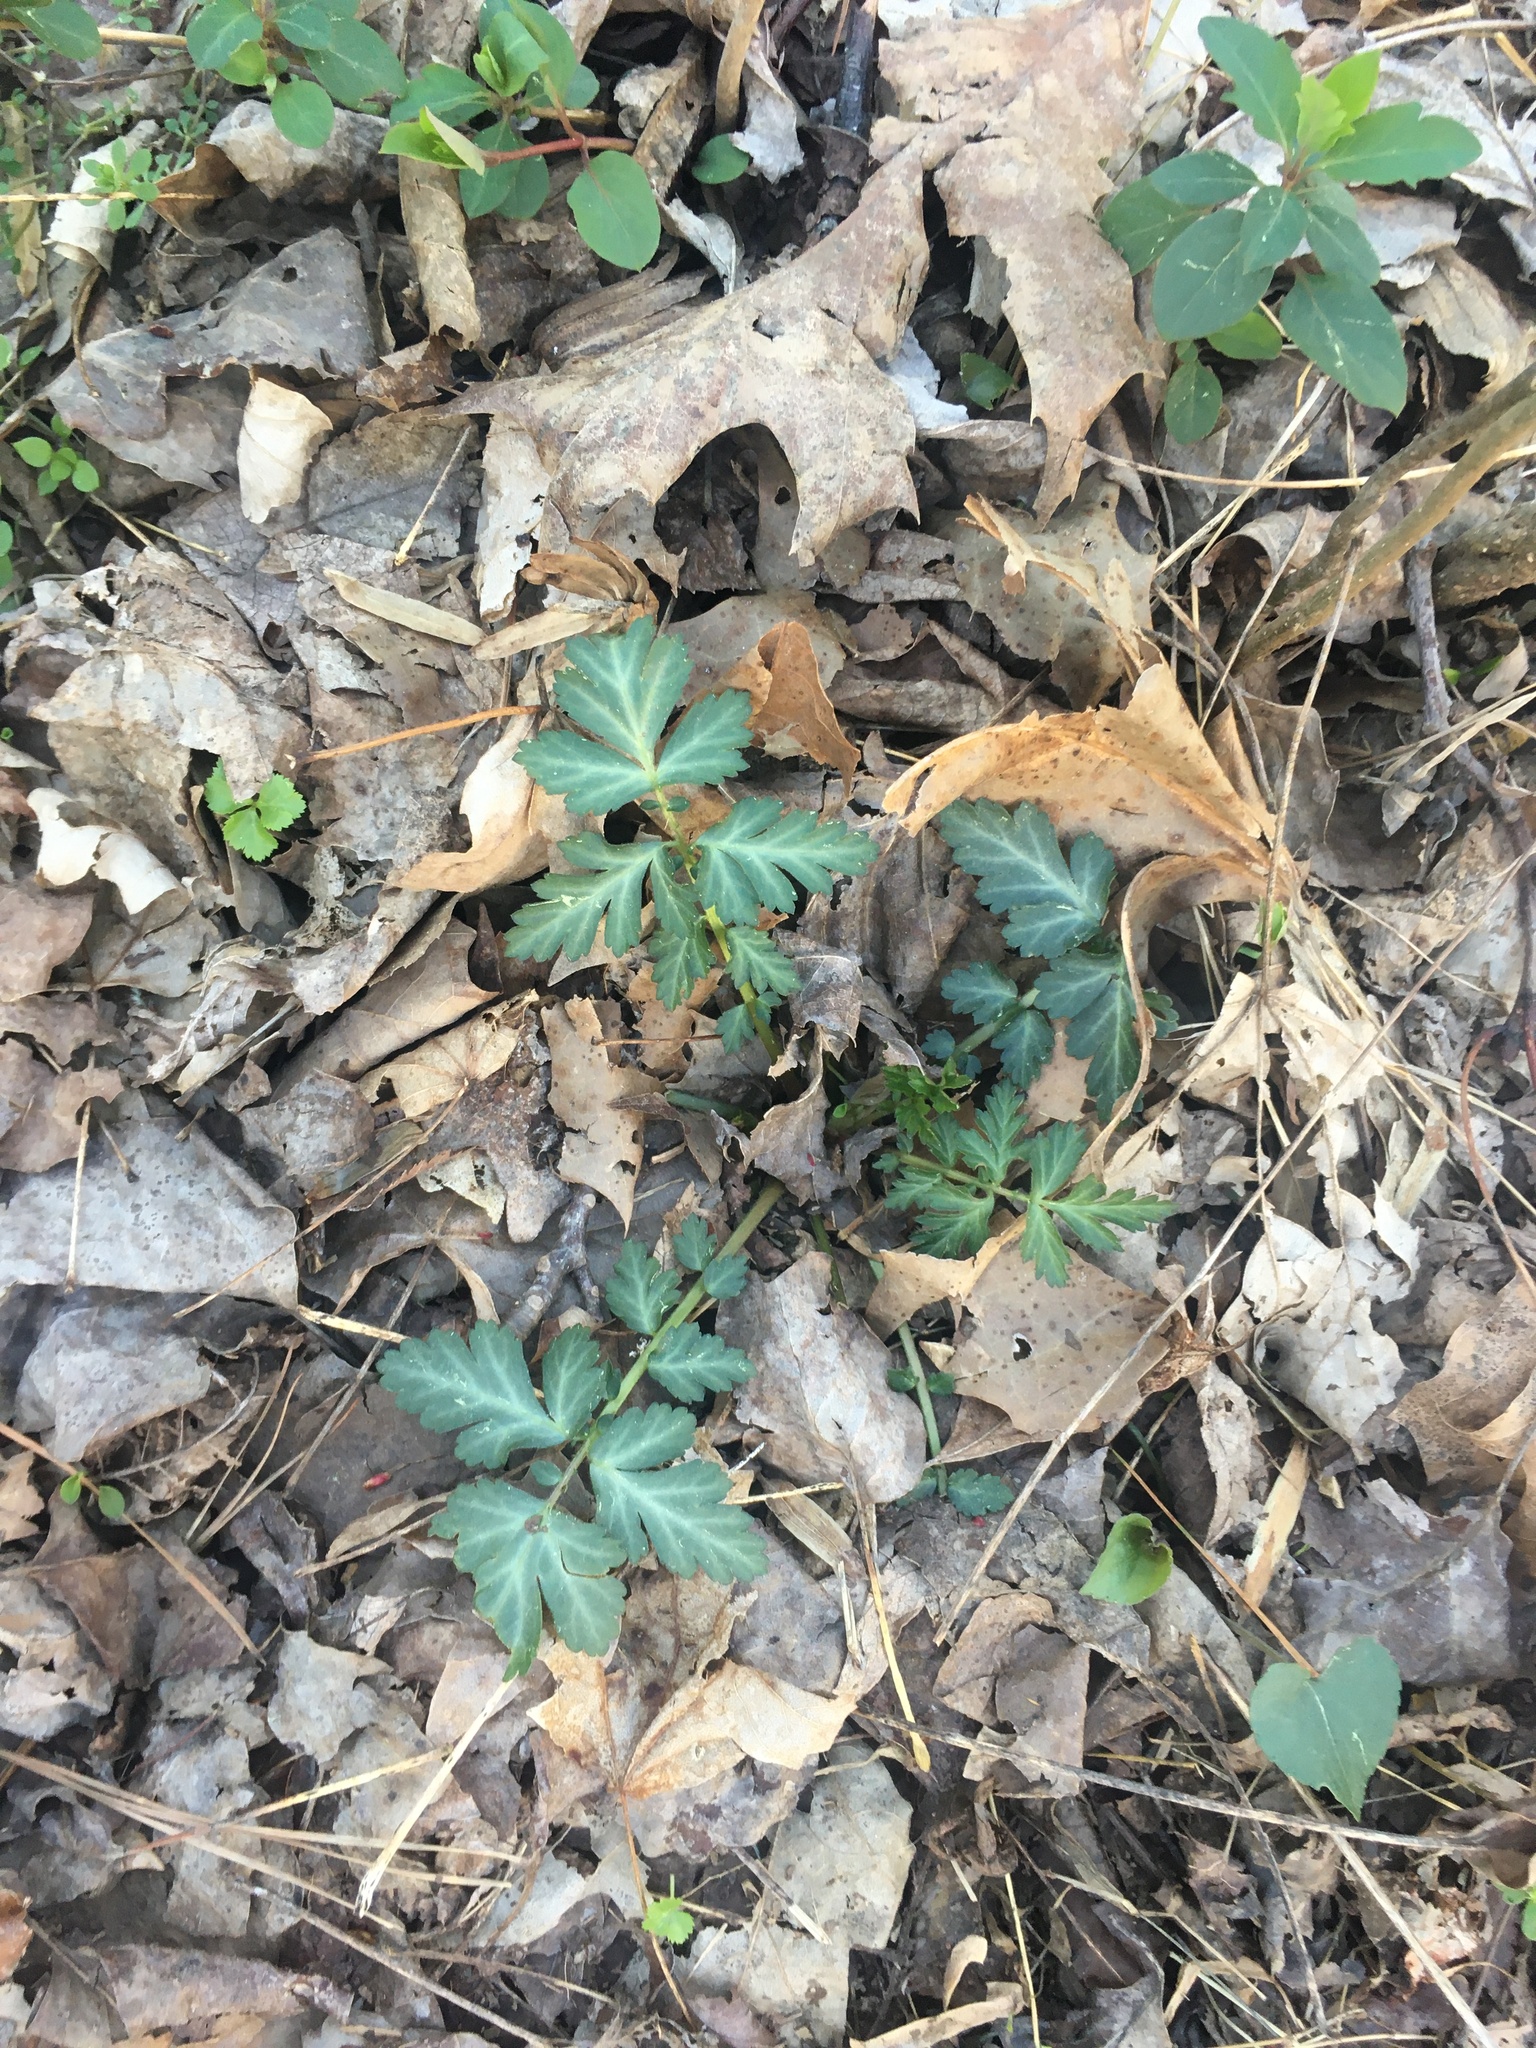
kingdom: Plantae
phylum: Tracheophyta
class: Magnoliopsida
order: Rosales
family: Rosaceae
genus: Geum
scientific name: Geum canadense
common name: White avens
